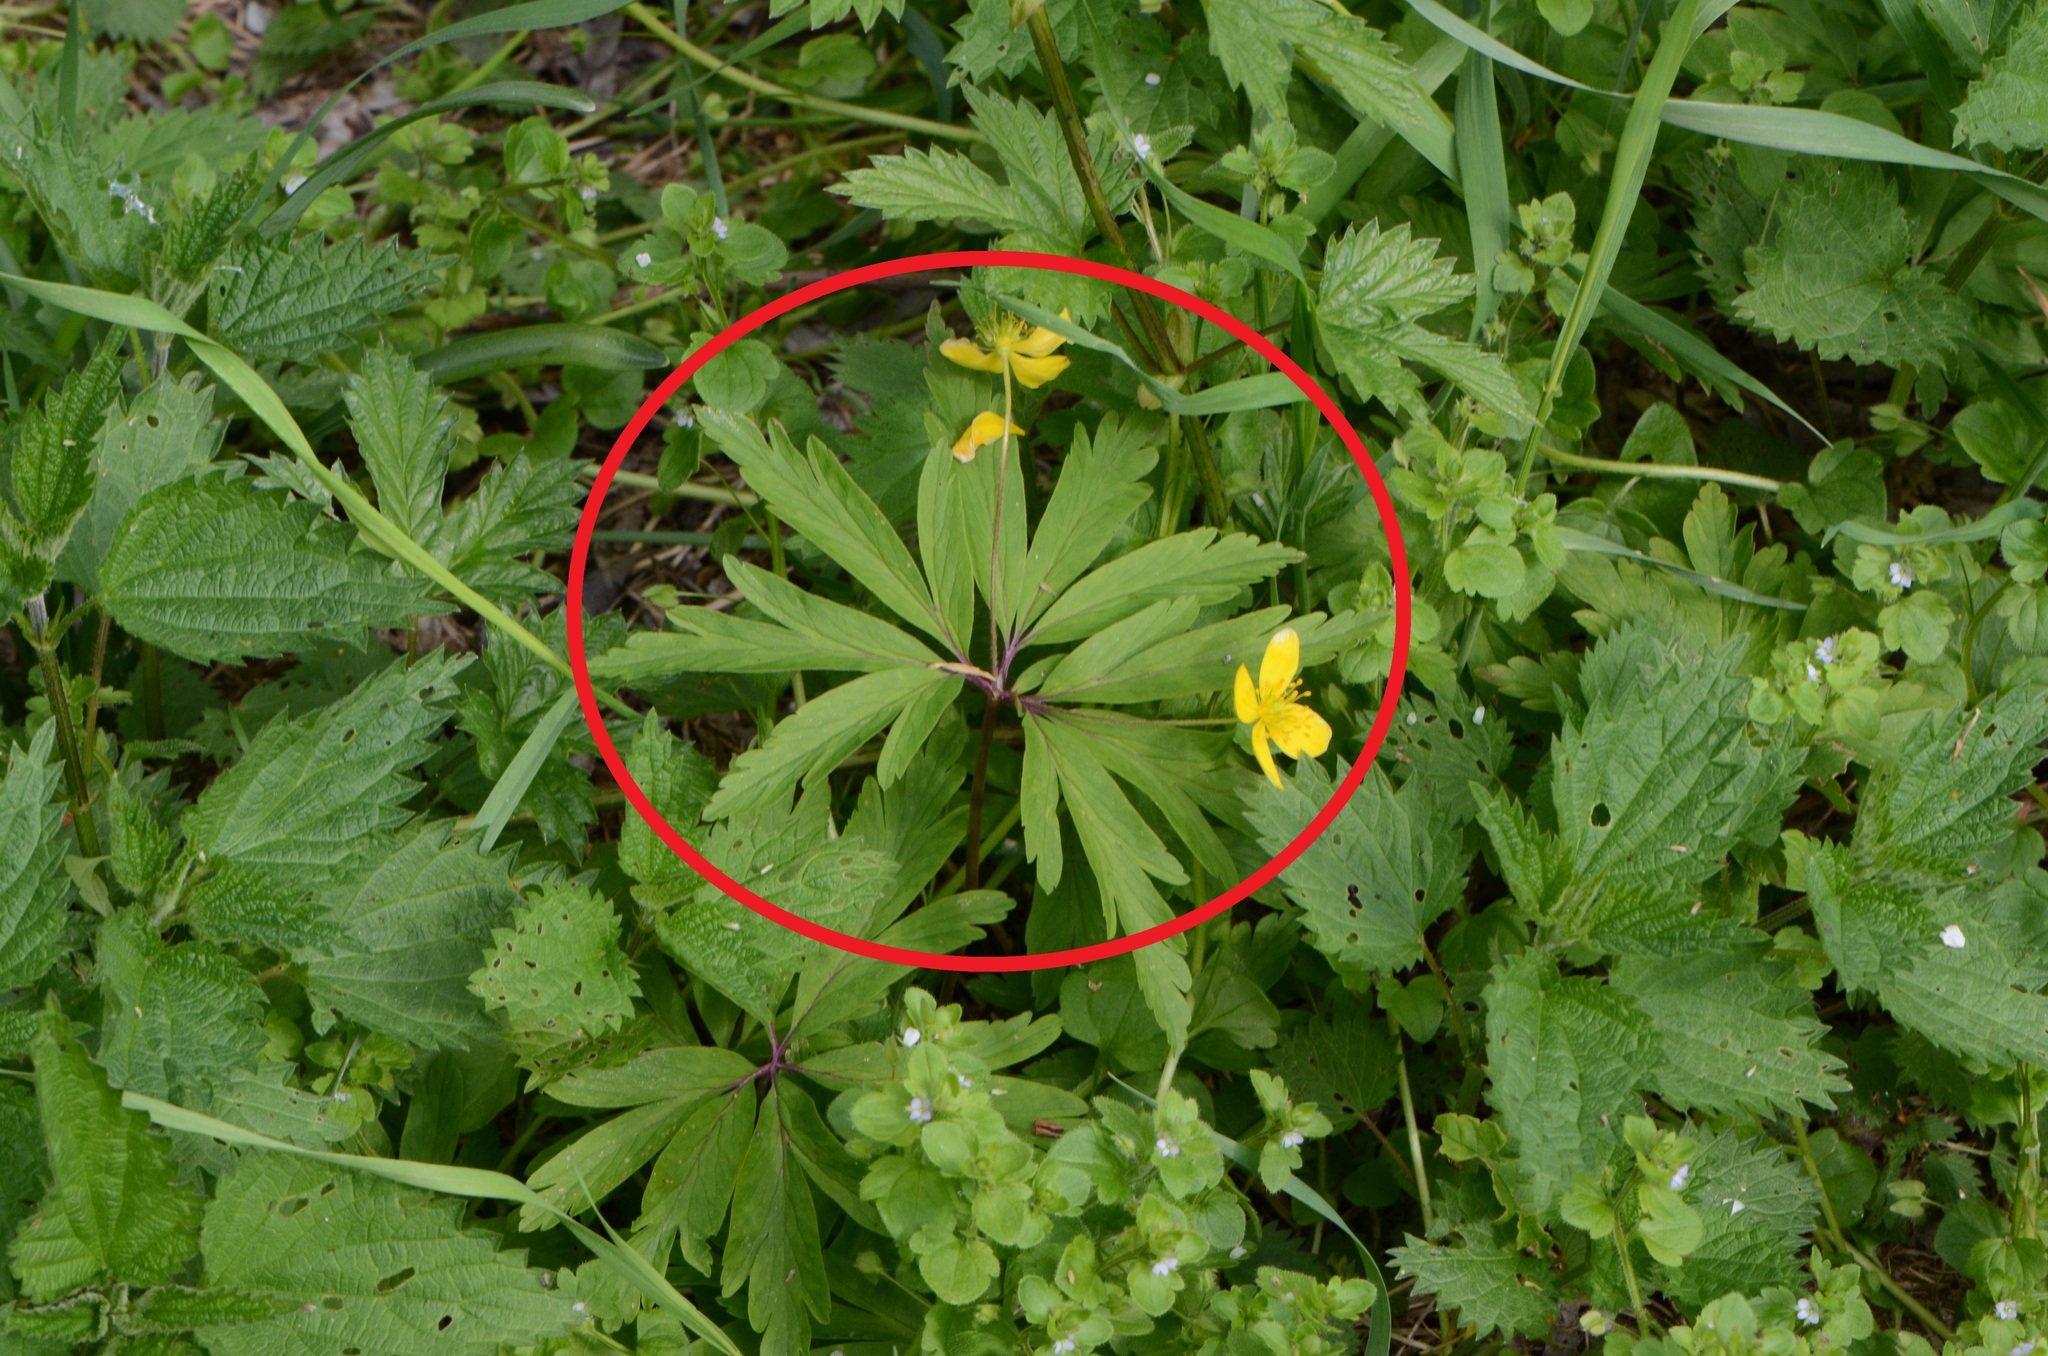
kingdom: Plantae
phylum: Tracheophyta
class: Magnoliopsida
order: Ranunculales
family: Ranunculaceae
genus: Anemone
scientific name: Anemone ranunculoides
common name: Yellow anemone
